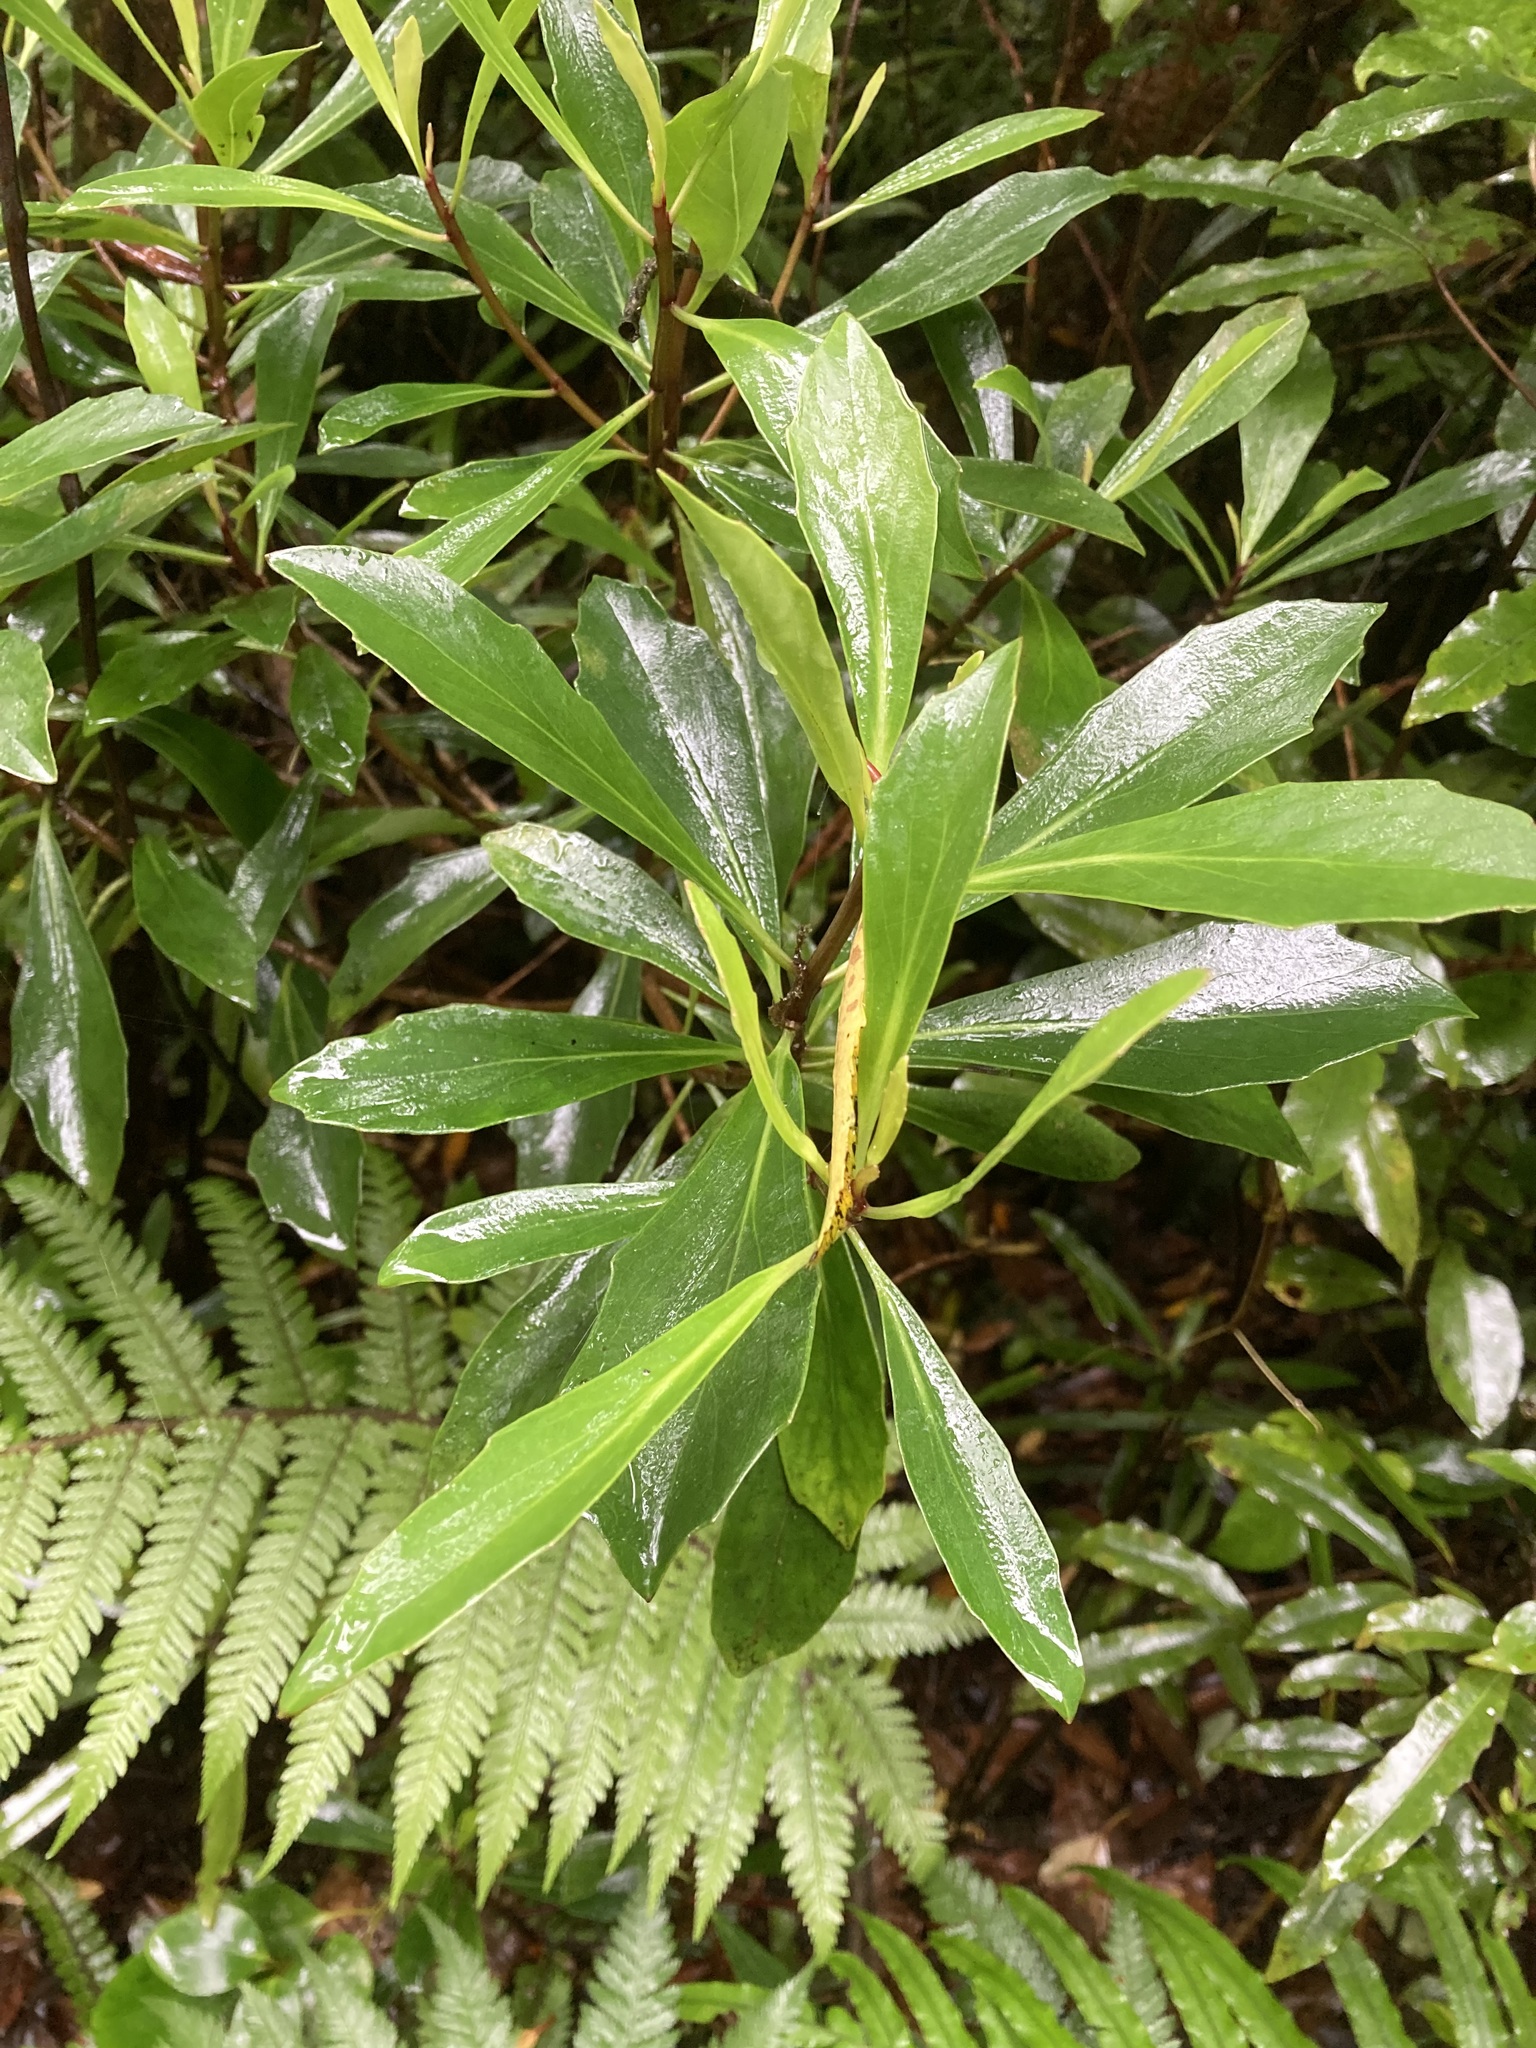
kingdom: Plantae
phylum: Tracheophyta
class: Magnoliopsida
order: Asterales
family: Asteraceae
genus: Brachyglottis
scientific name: Brachyglottis kirkii
